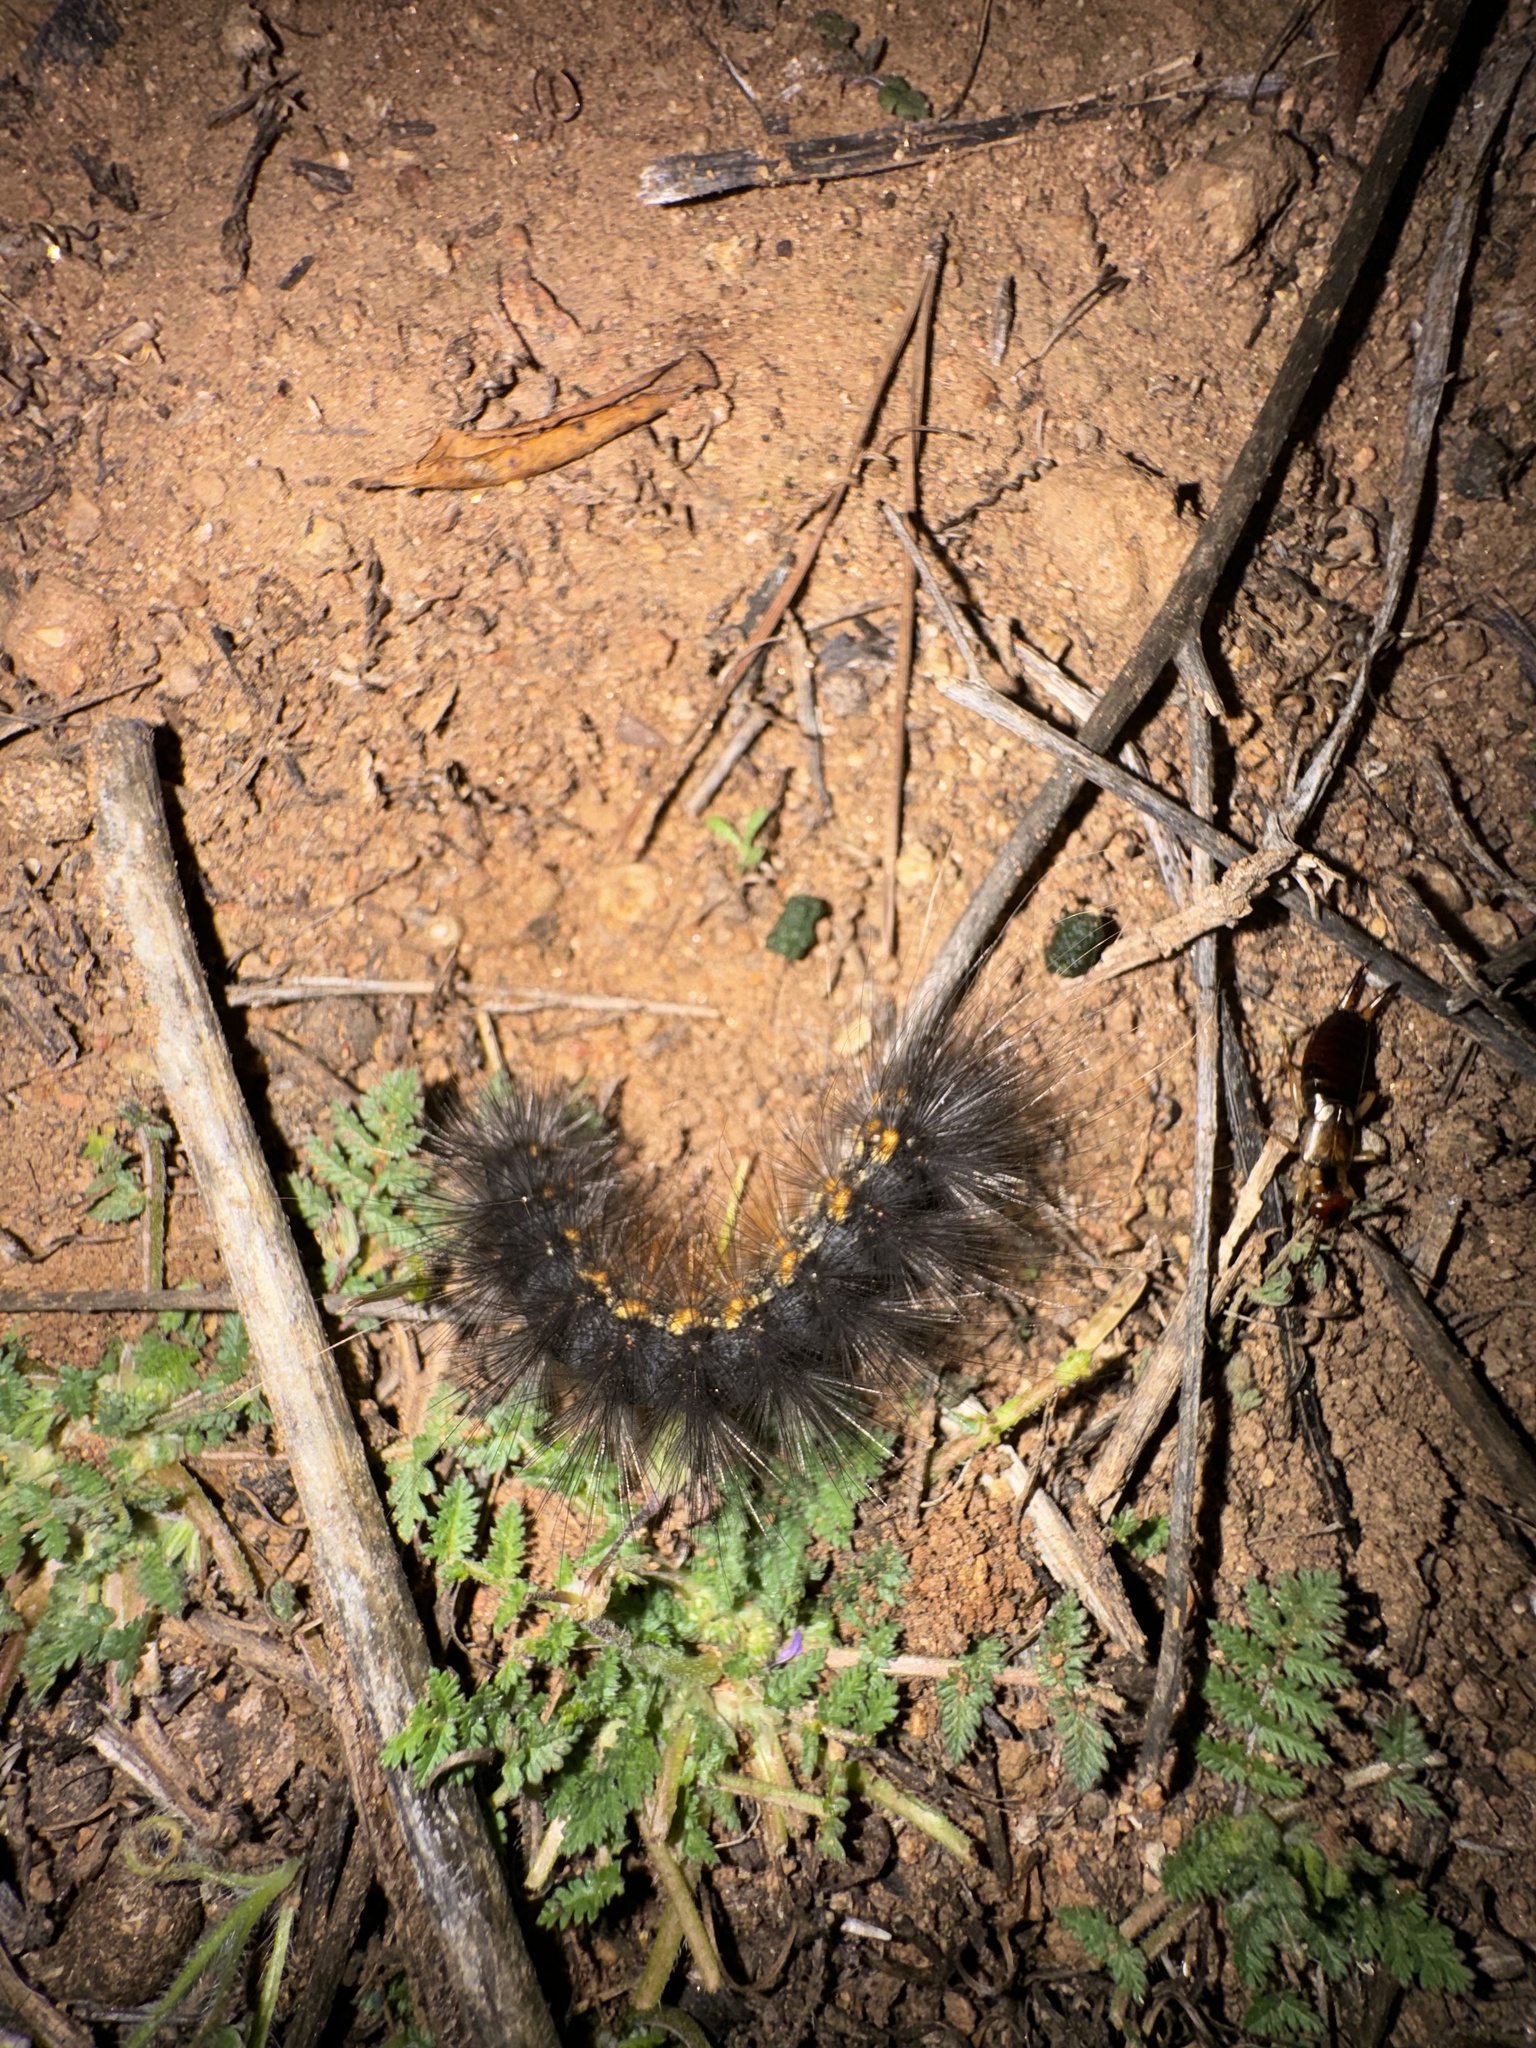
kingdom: Animalia
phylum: Arthropoda
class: Insecta
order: Lepidoptera
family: Erebidae
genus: Estigmene
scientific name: Estigmene acrea
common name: Salt marsh moth
